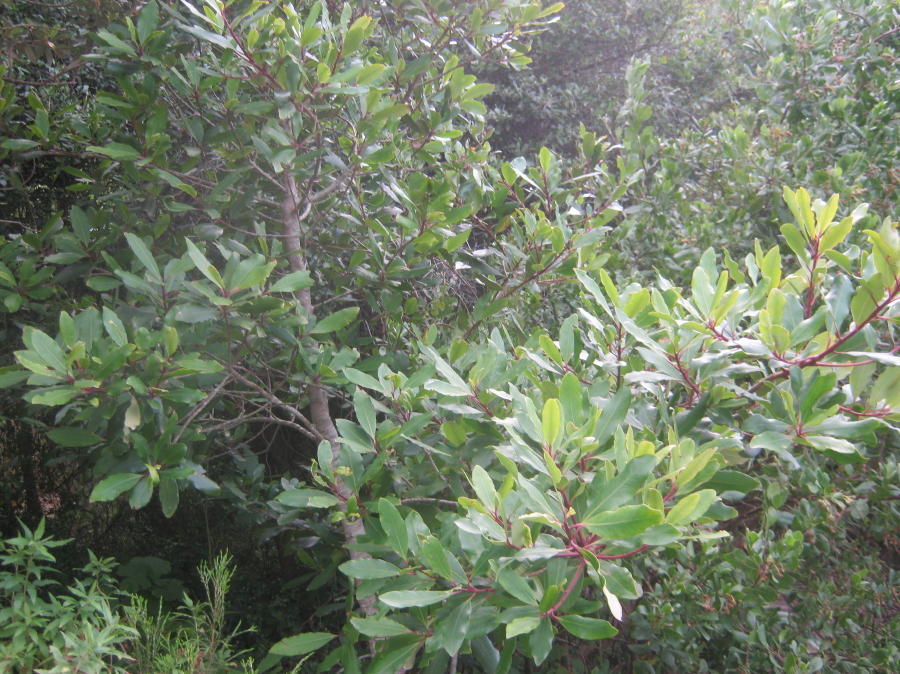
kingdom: Plantae
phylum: Tracheophyta
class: Magnoliopsida
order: Ericales
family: Primulaceae
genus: Myrsine
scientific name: Myrsine melanophloeos
